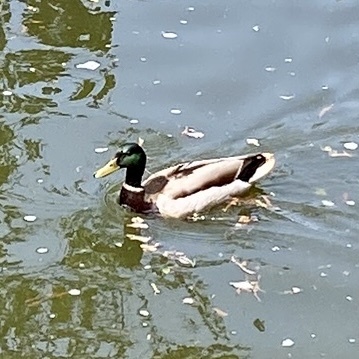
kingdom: Animalia
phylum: Chordata
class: Aves
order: Anseriformes
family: Anatidae
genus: Anas
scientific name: Anas platyrhynchos
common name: Mallard
